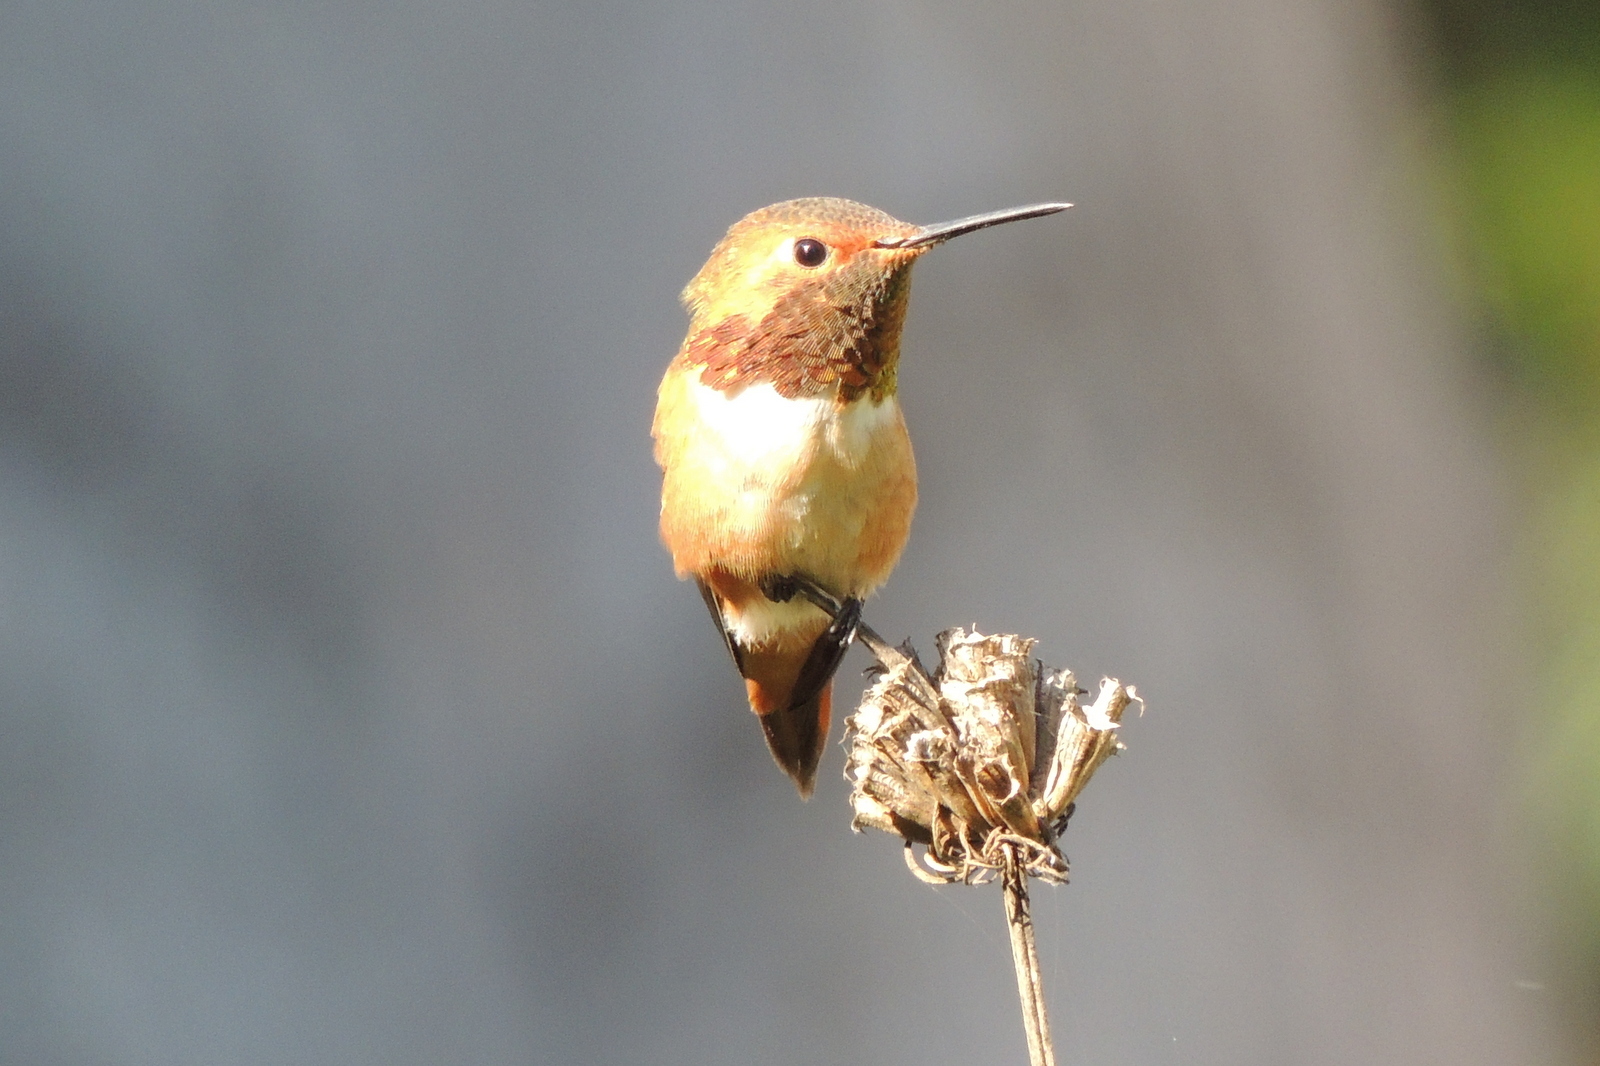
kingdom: Animalia
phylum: Chordata
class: Aves
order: Apodiformes
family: Trochilidae
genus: Selasphorus
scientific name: Selasphorus sasin
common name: Allen's hummingbird
